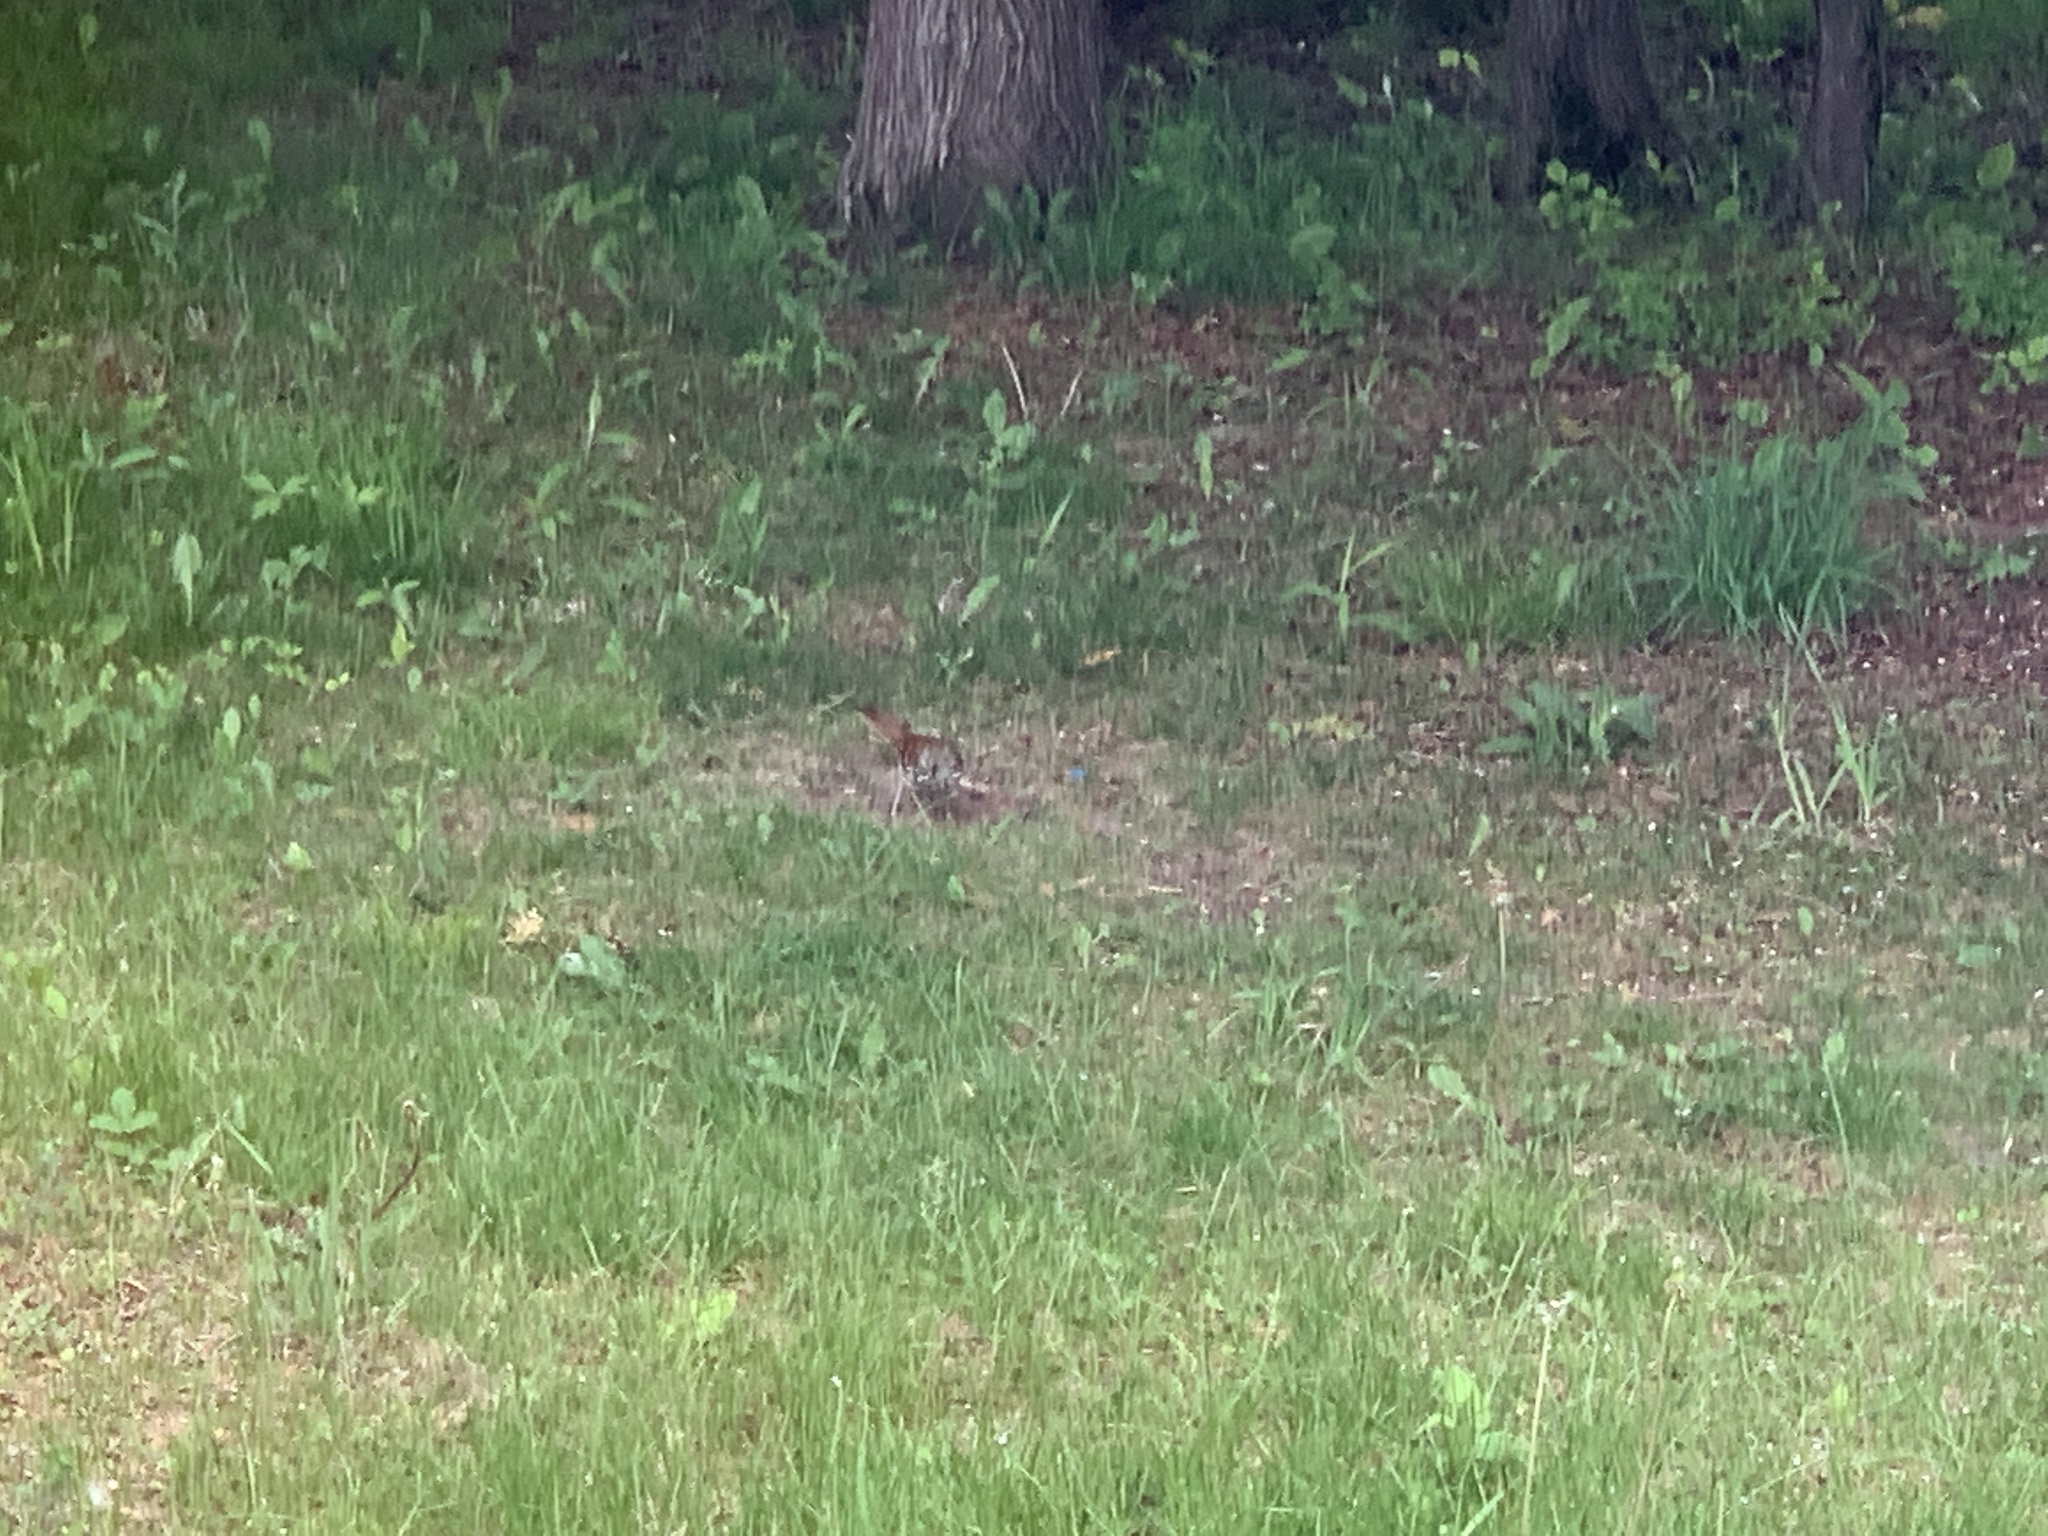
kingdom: Animalia
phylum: Chordata
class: Aves
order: Passeriformes
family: Mimidae
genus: Toxostoma
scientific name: Toxostoma rufum
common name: Brown thrasher
